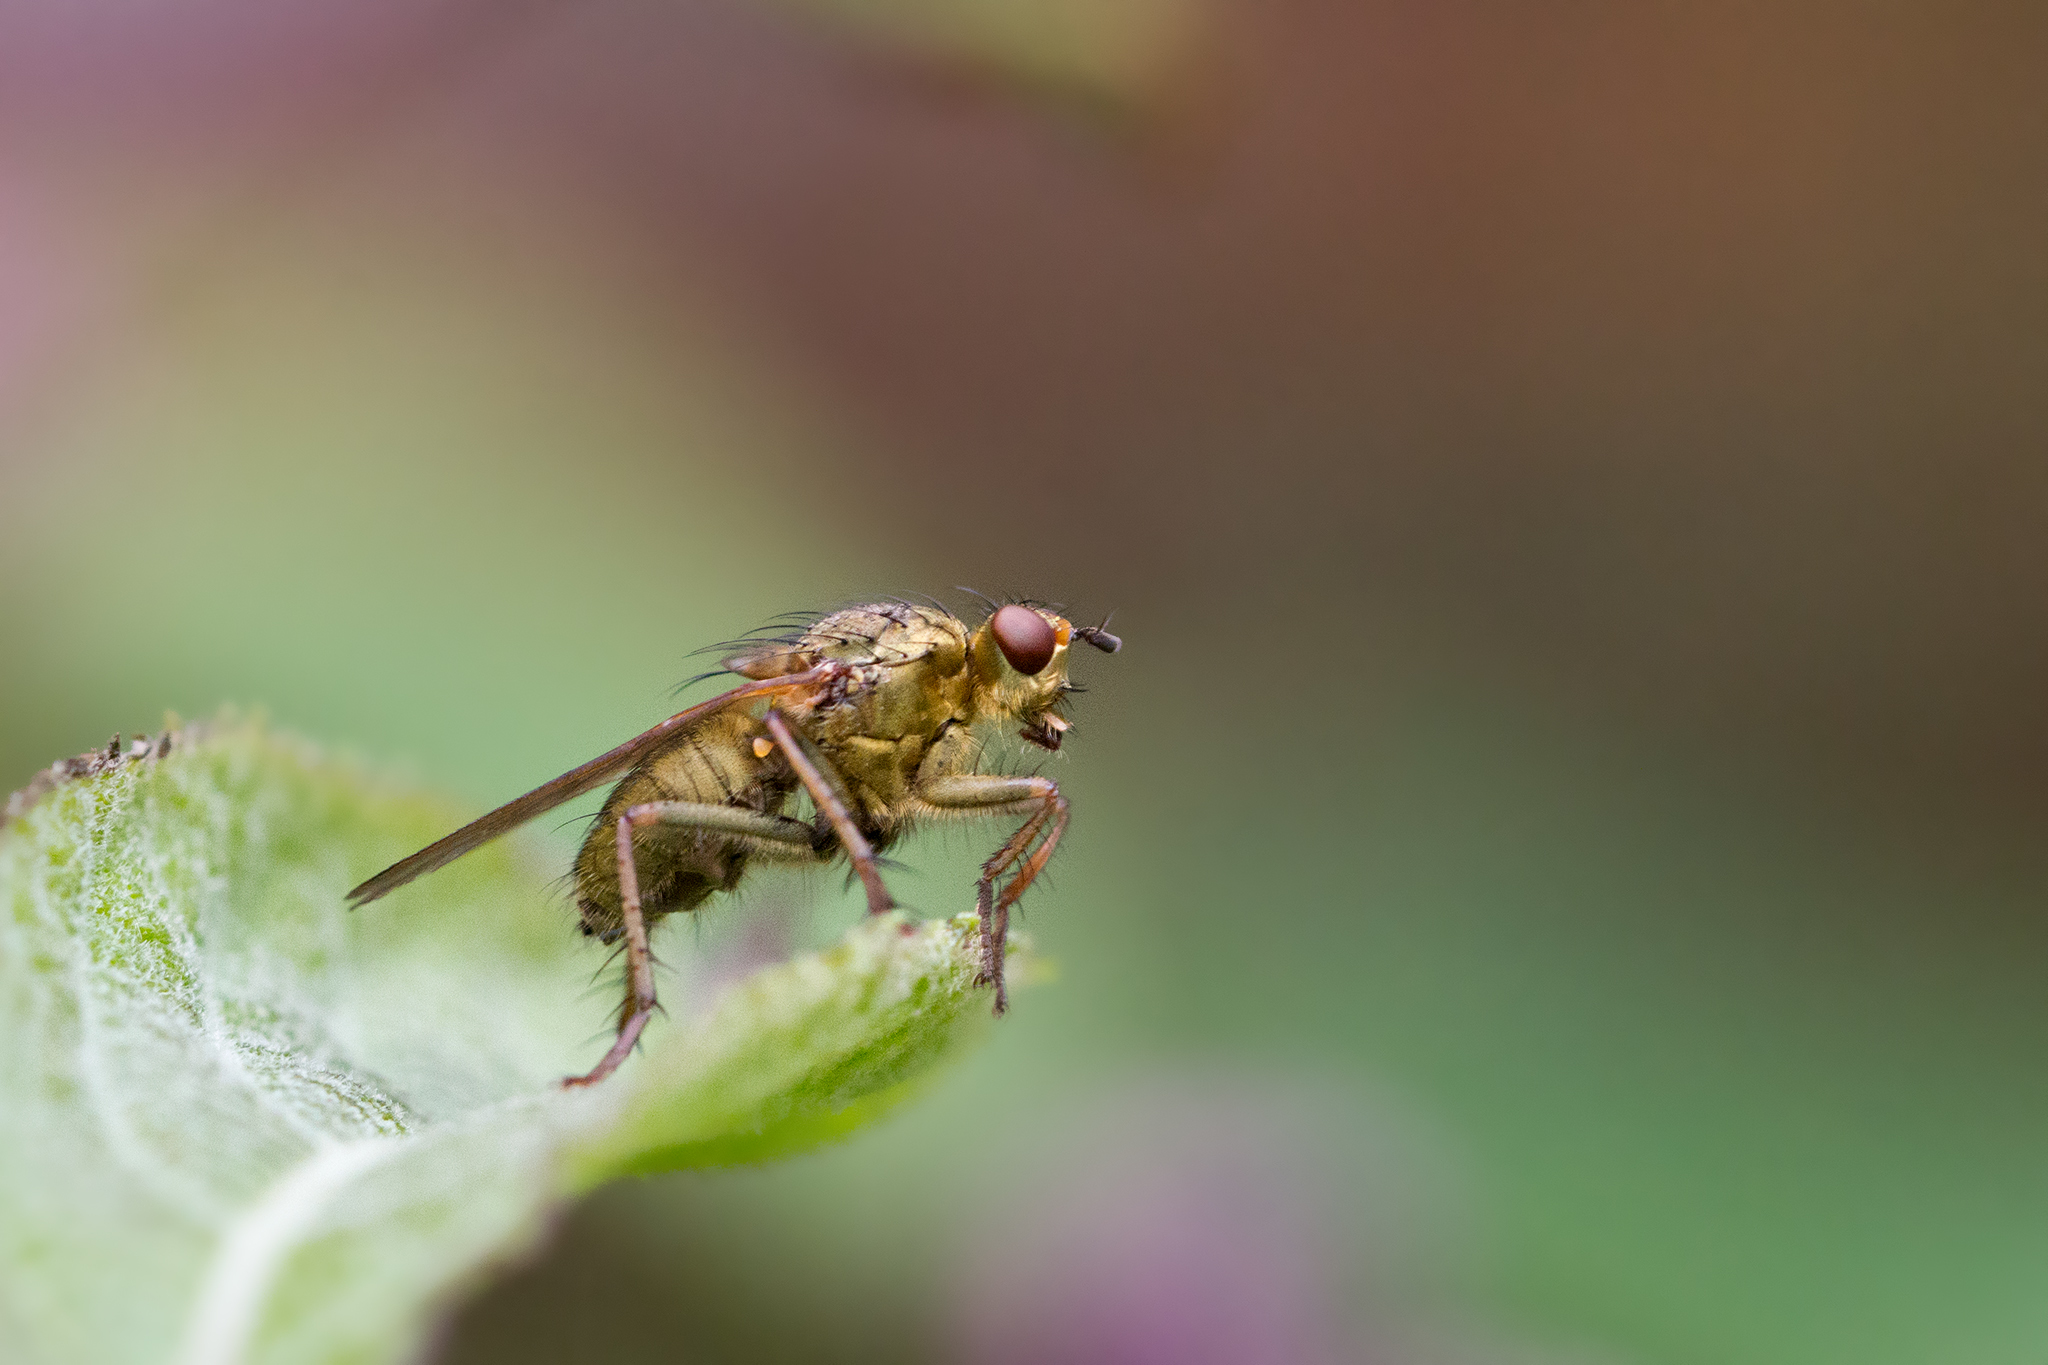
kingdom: Animalia
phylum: Arthropoda
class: Insecta
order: Diptera
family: Scathophagidae
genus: Scathophaga
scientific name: Scathophaga stercoraria
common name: Yellow dung fly
